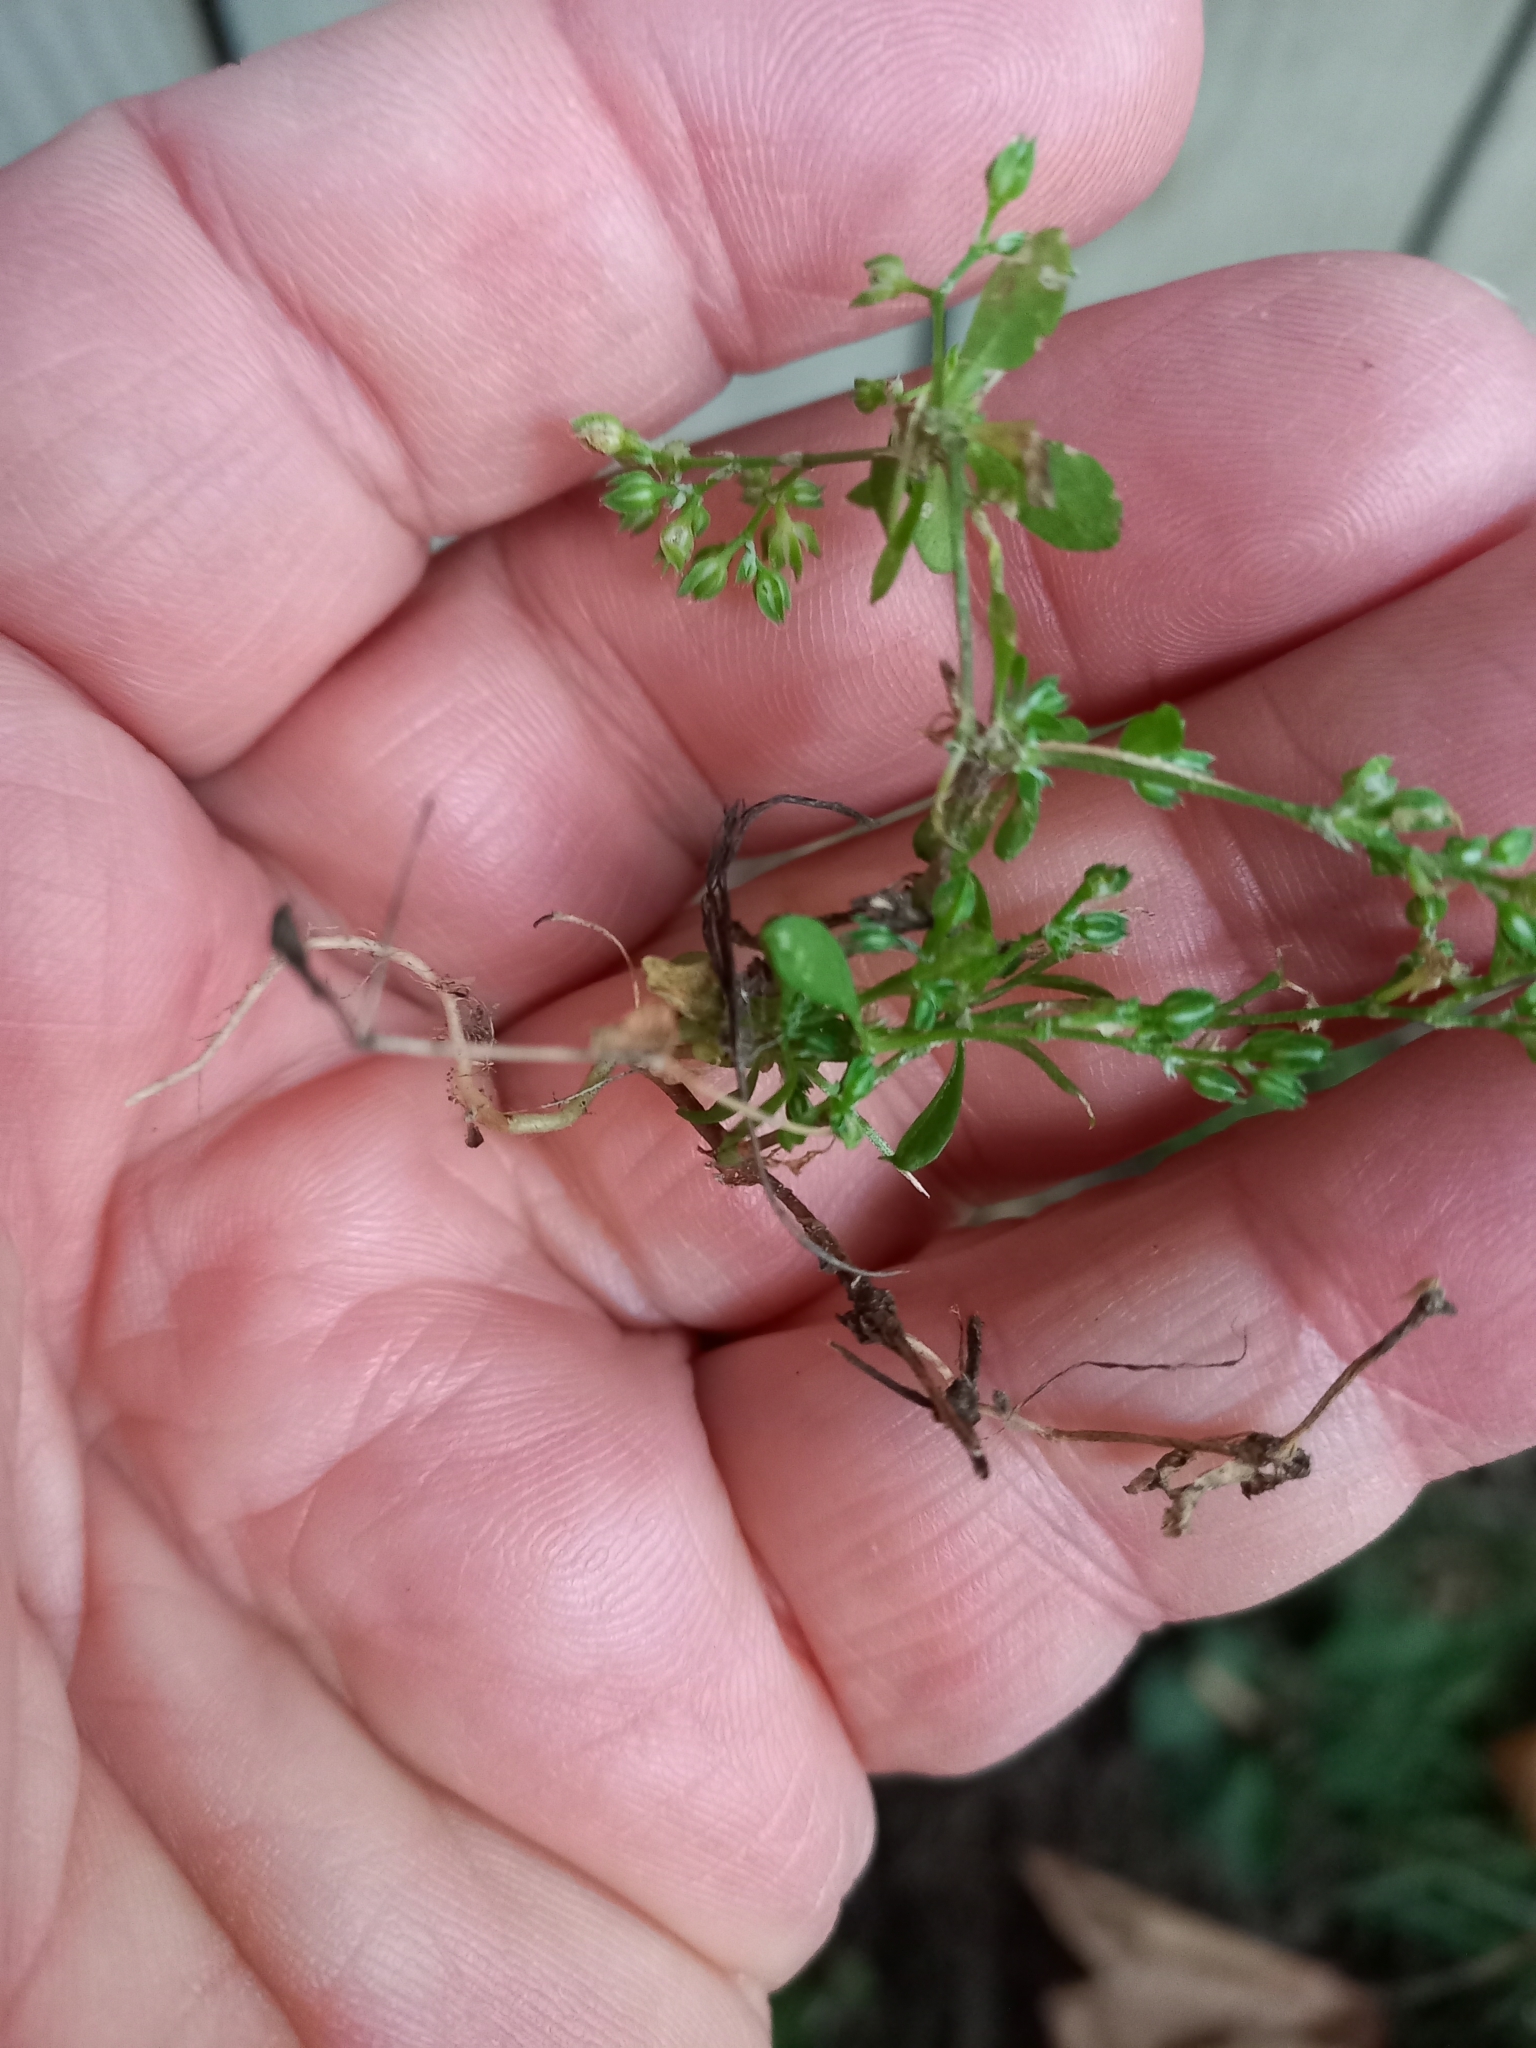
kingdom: Plantae
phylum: Tracheophyta
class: Magnoliopsida
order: Caryophyllales
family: Caryophyllaceae
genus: Polycarpon
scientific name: Polycarpon tetraphyllum
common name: Four-leaved all-seed
